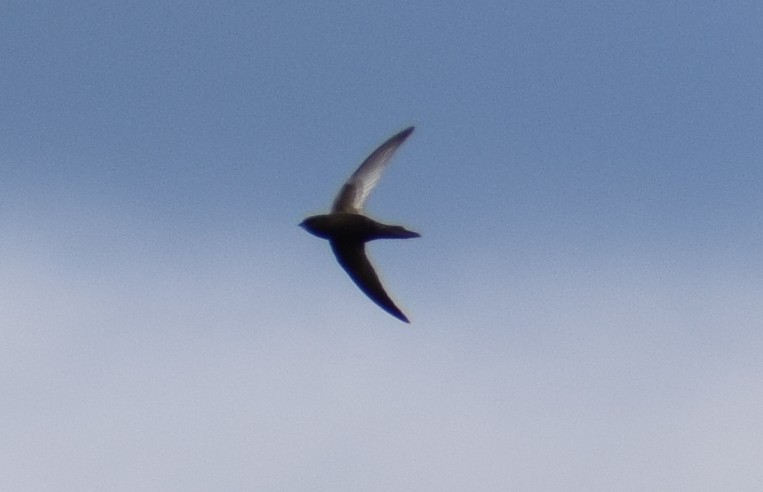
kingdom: Animalia
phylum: Chordata
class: Aves
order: Apodiformes
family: Apodidae
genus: Apus
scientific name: Apus apus
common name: Common swift
